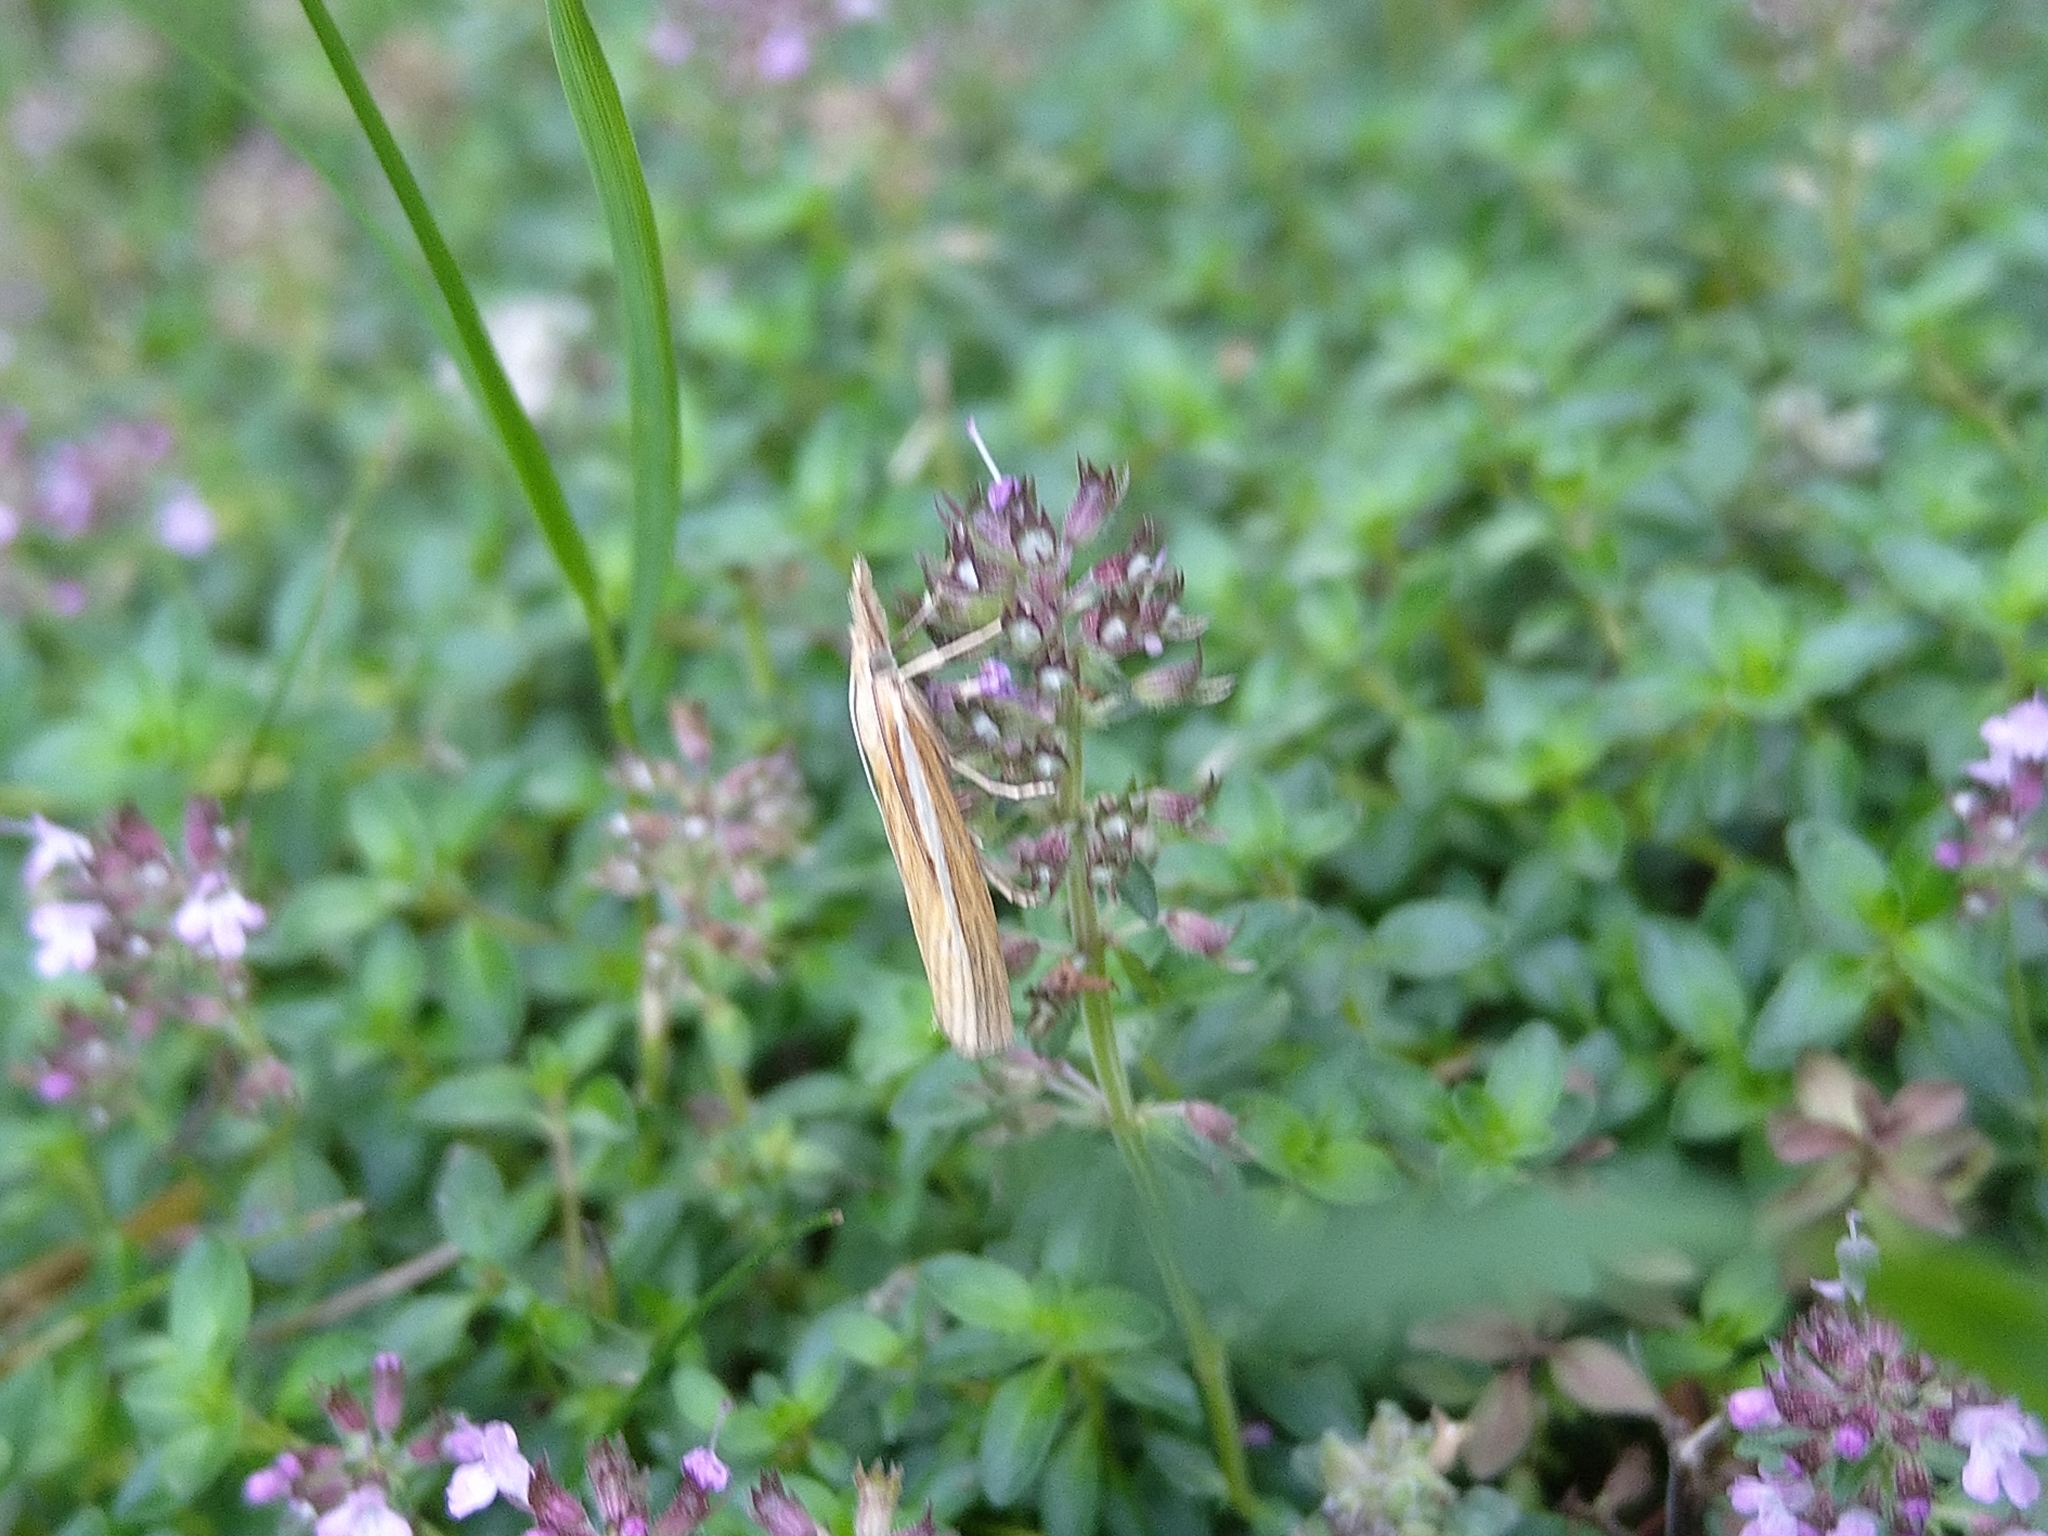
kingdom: Animalia
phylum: Arthropoda
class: Insecta
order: Lepidoptera
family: Crambidae
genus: Agriphila
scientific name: Agriphila tristellus
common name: Common grass-veneer
